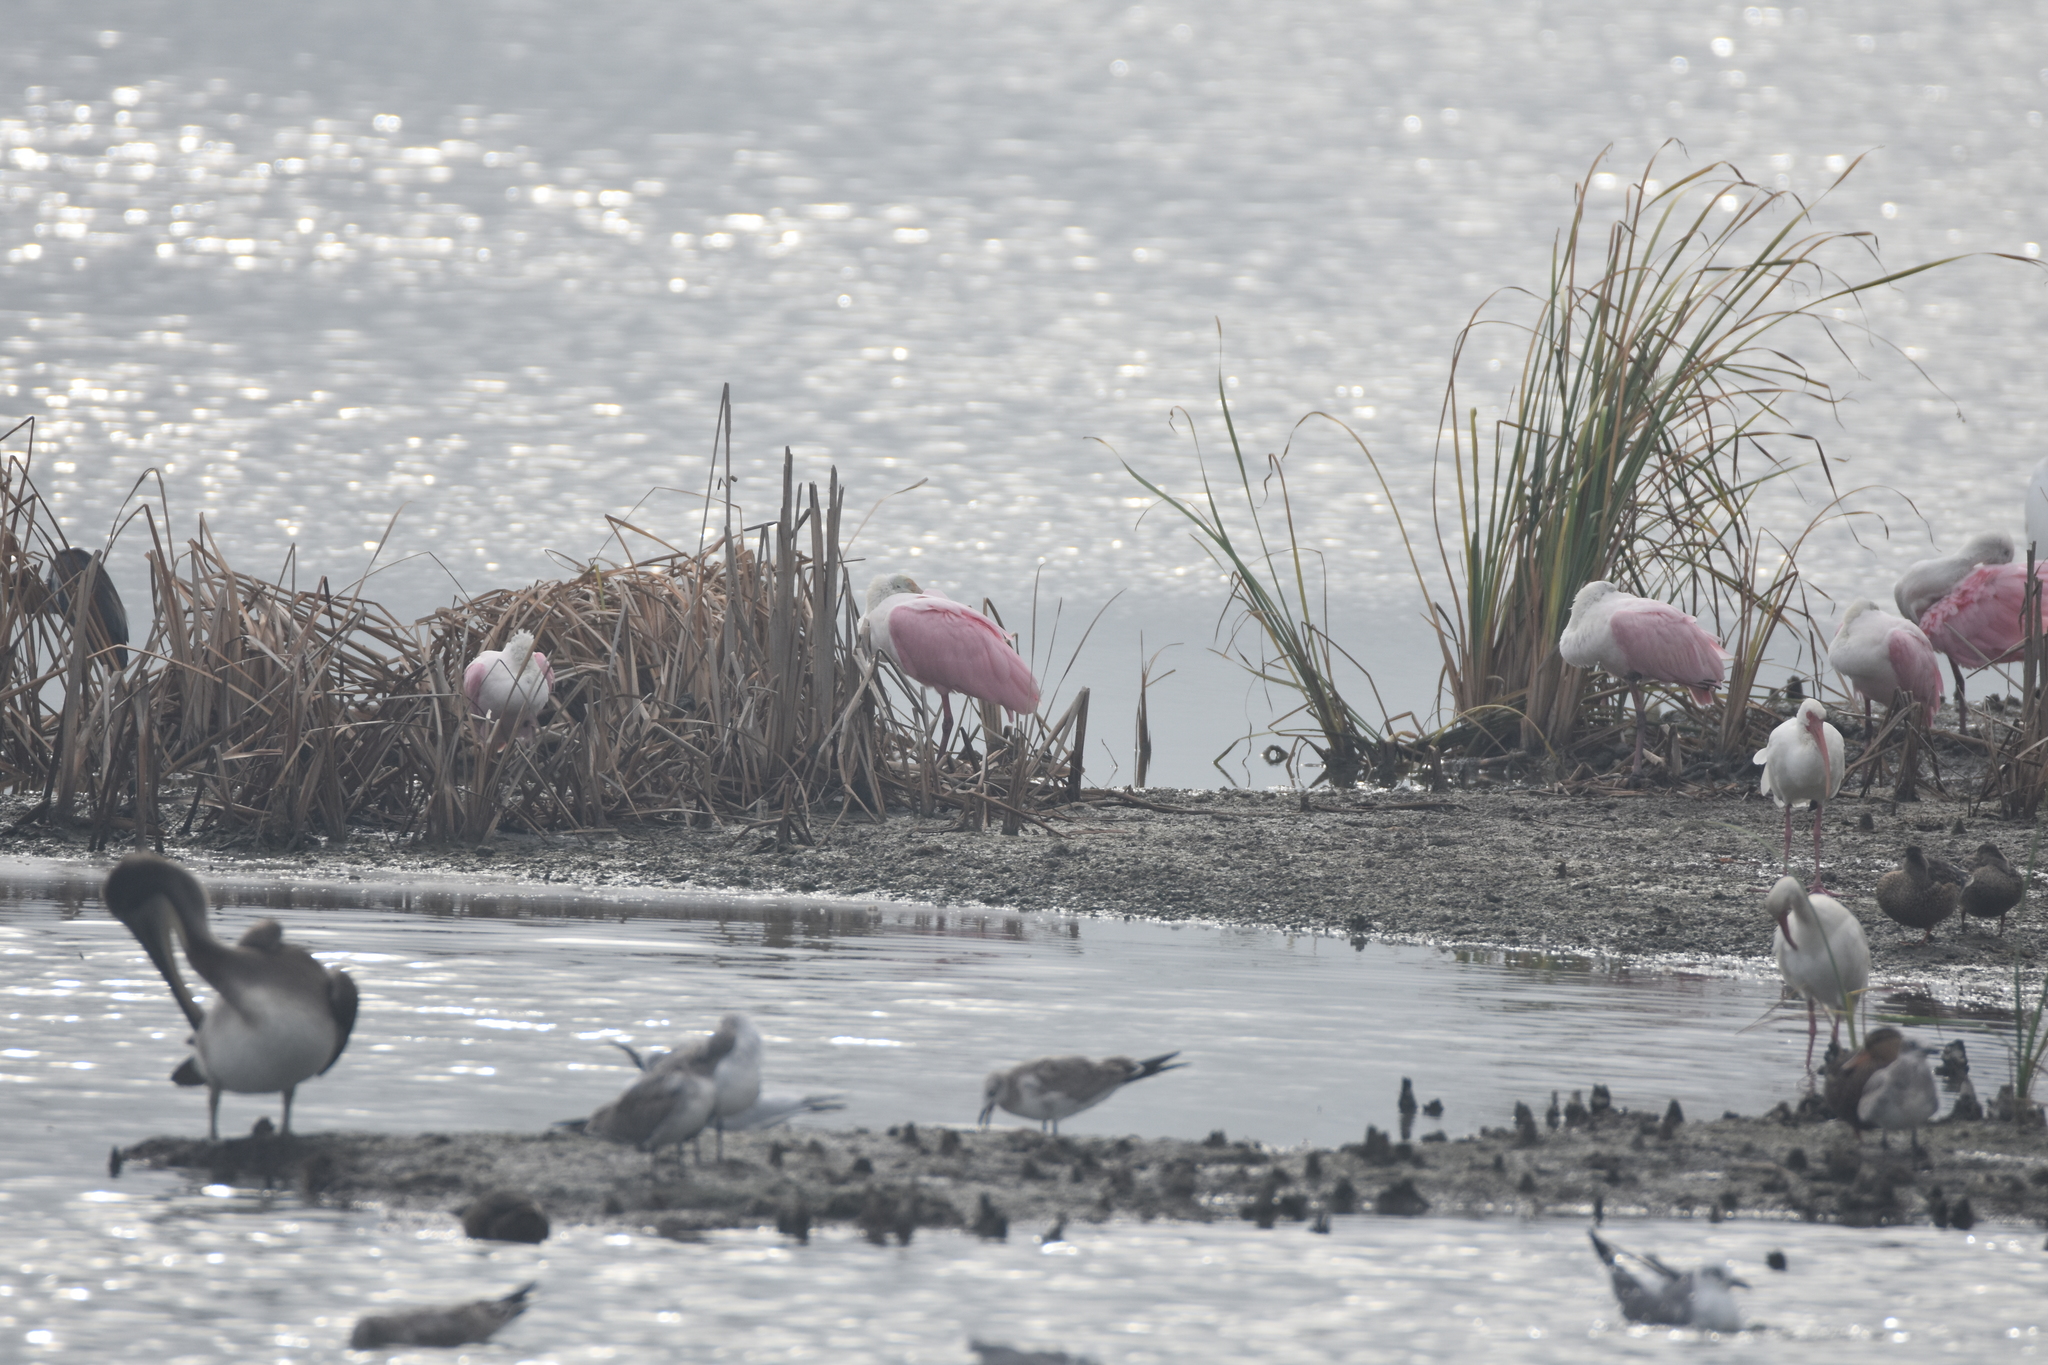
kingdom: Animalia
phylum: Chordata
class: Aves
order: Pelecaniformes
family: Threskiornithidae
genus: Platalea
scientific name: Platalea ajaja
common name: Roseate spoonbill
